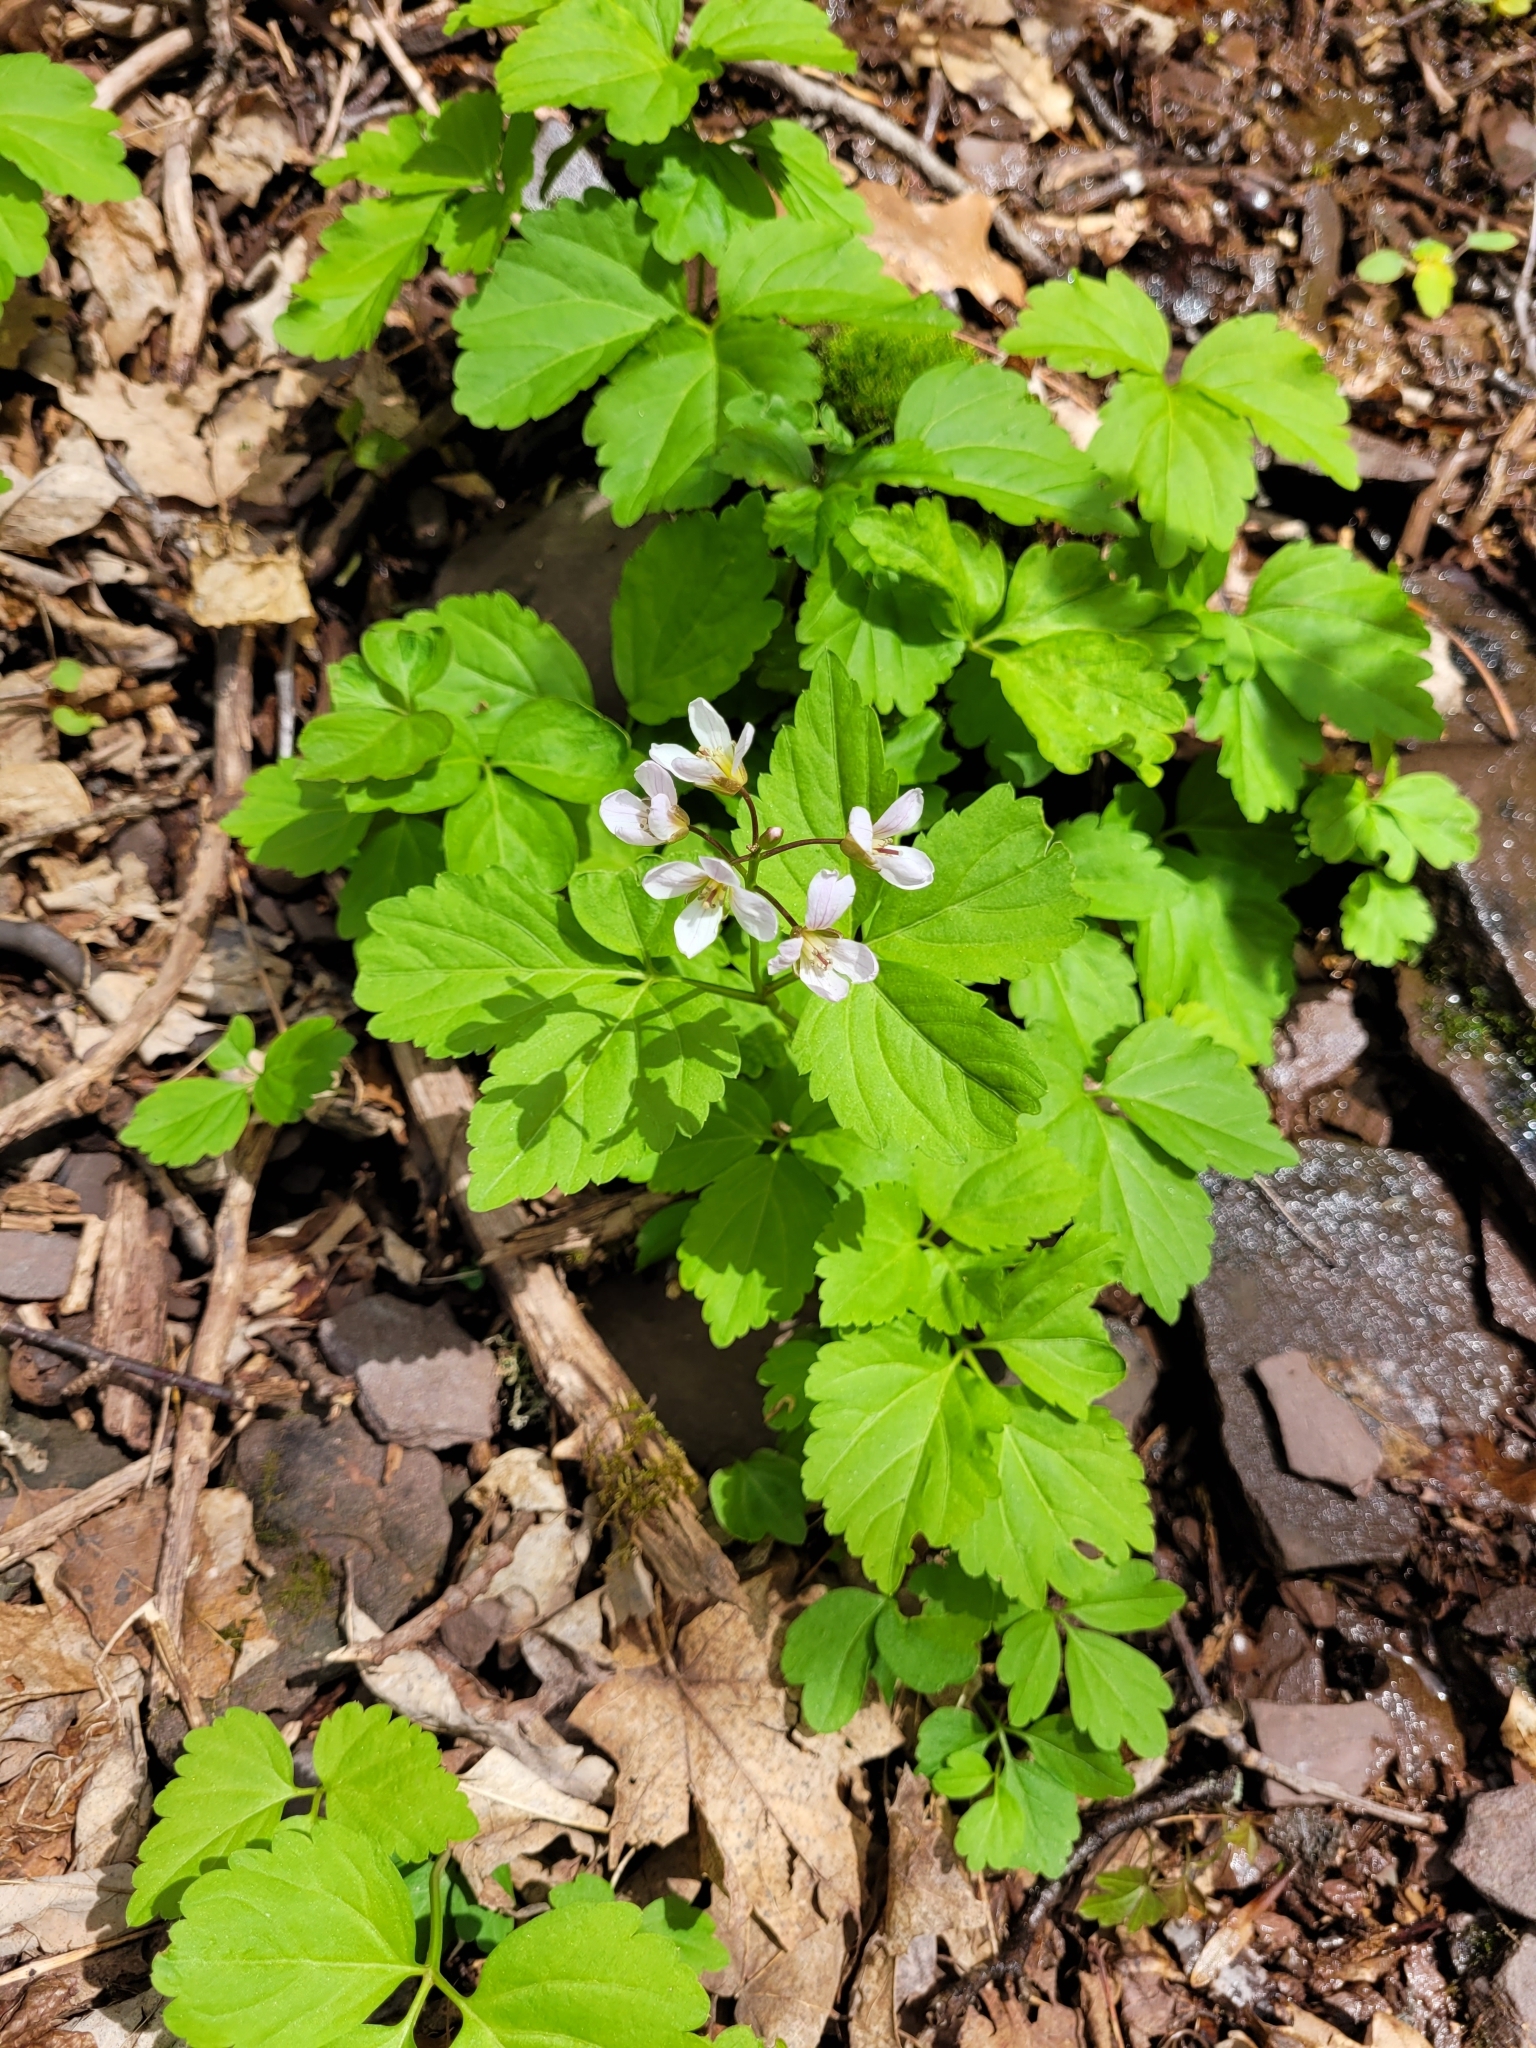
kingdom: Plantae
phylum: Tracheophyta
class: Magnoliopsida
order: Brassicales
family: Brassicaceae
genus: Cardamine
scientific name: Cardamine diphylla
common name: Broad-leaved toothwort
